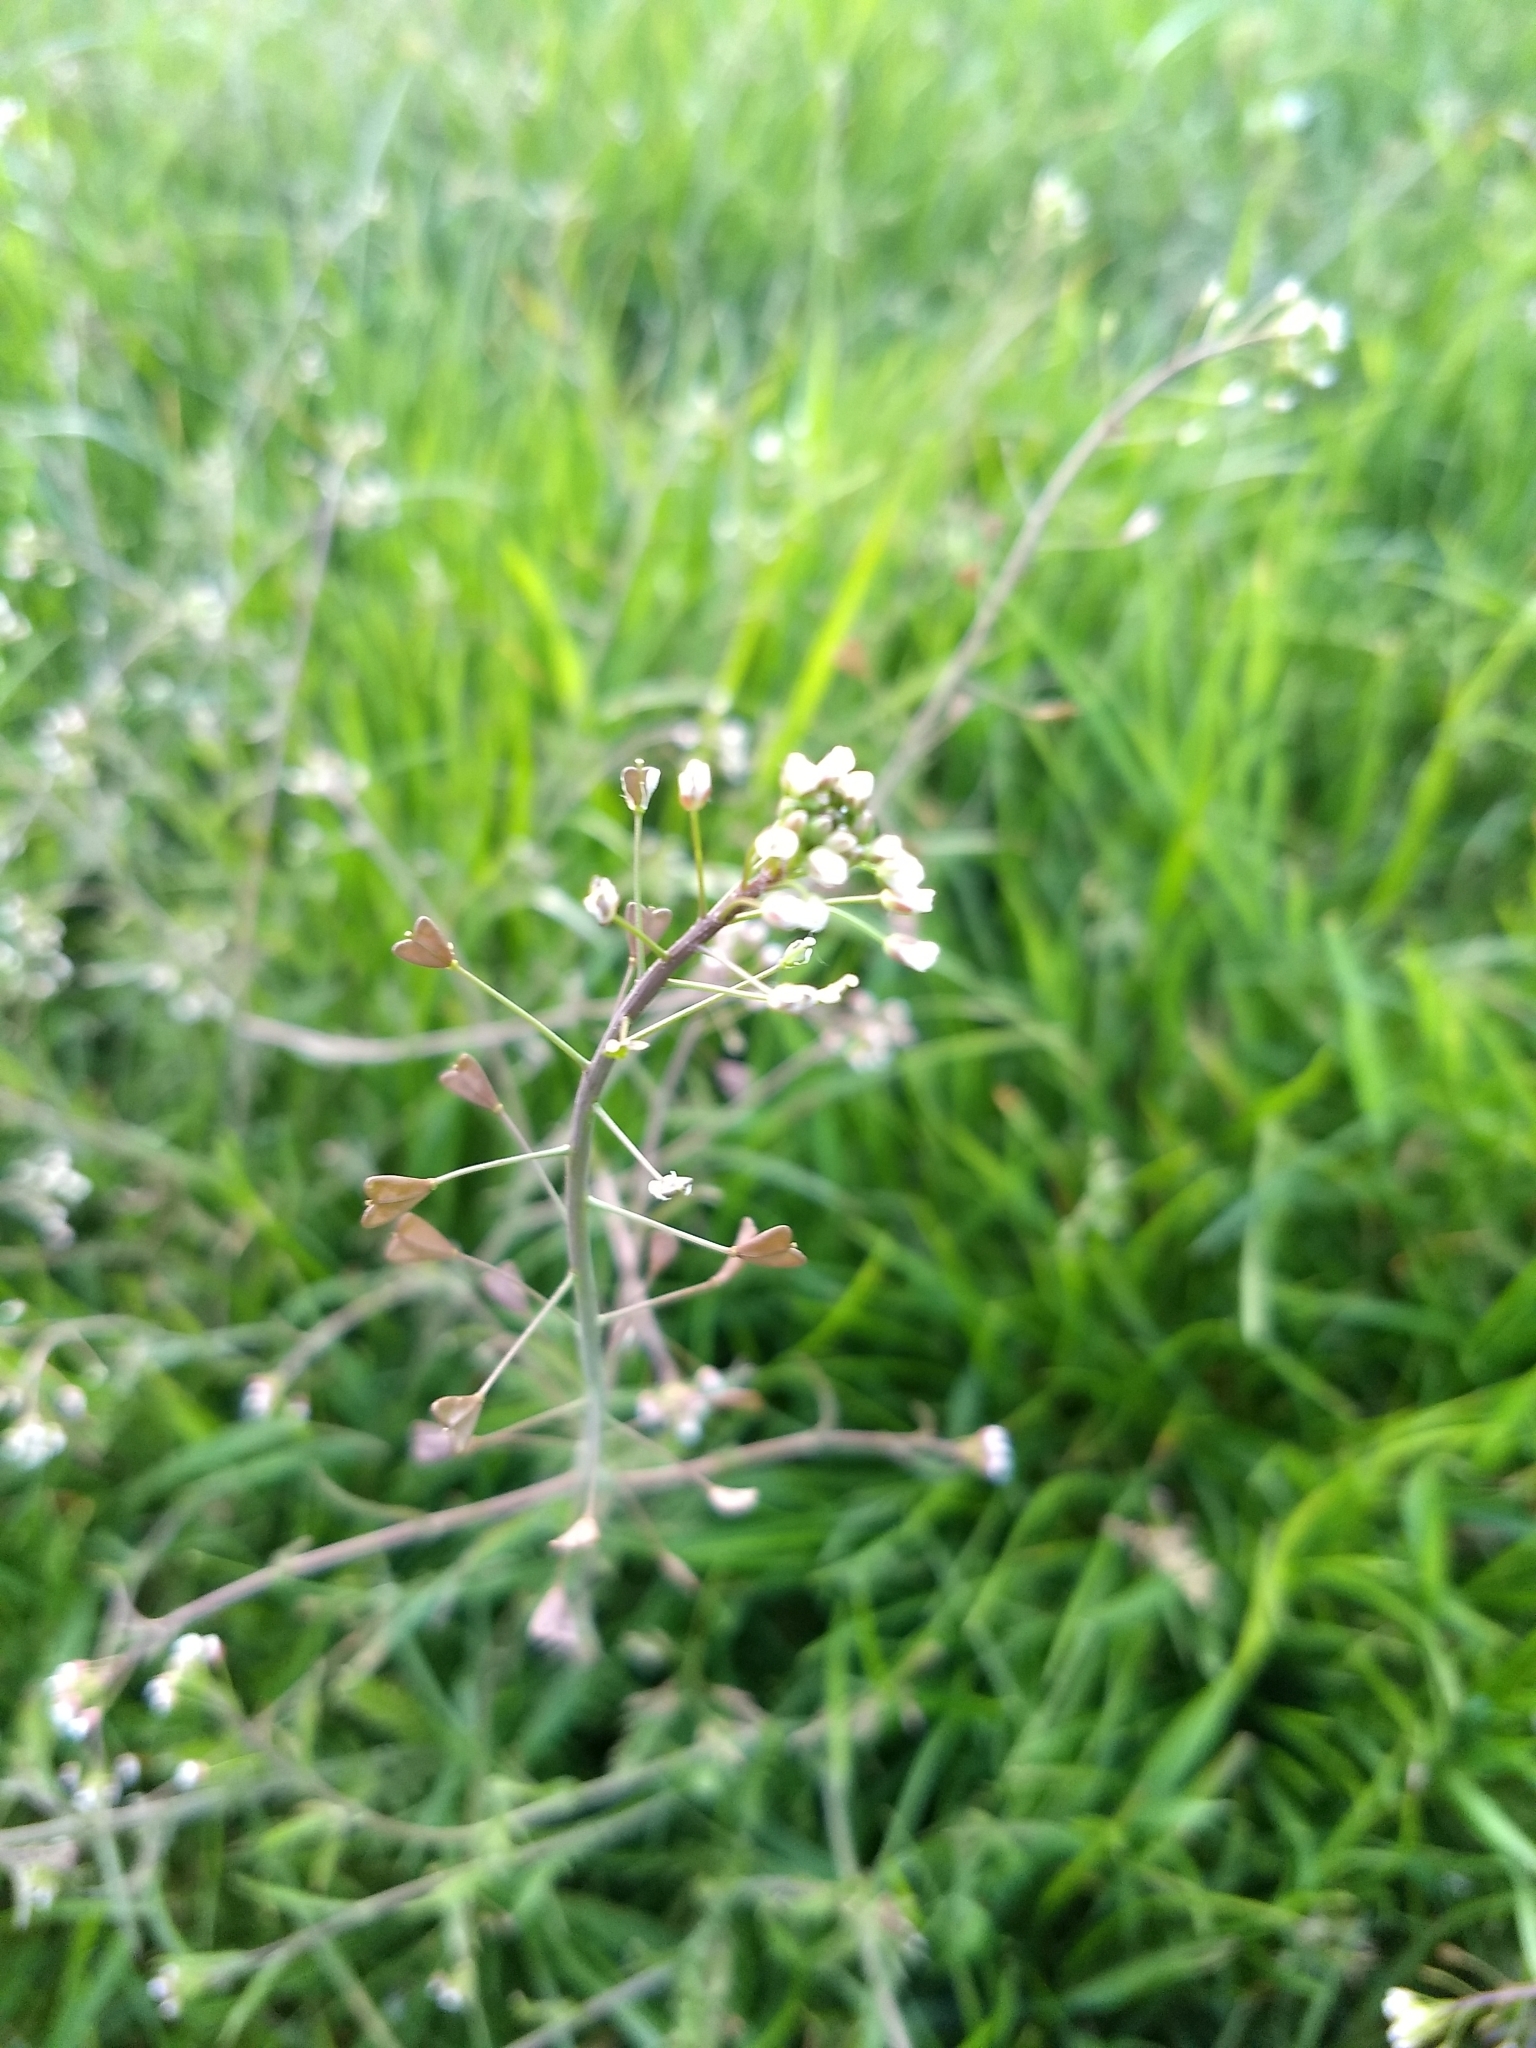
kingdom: Plantae
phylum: Tracheophyta
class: Magnoliopsida
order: Brassicales
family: Brassicaceae
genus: Capsella
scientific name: Capsella bursa-pastoris
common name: Shepherd's purse
